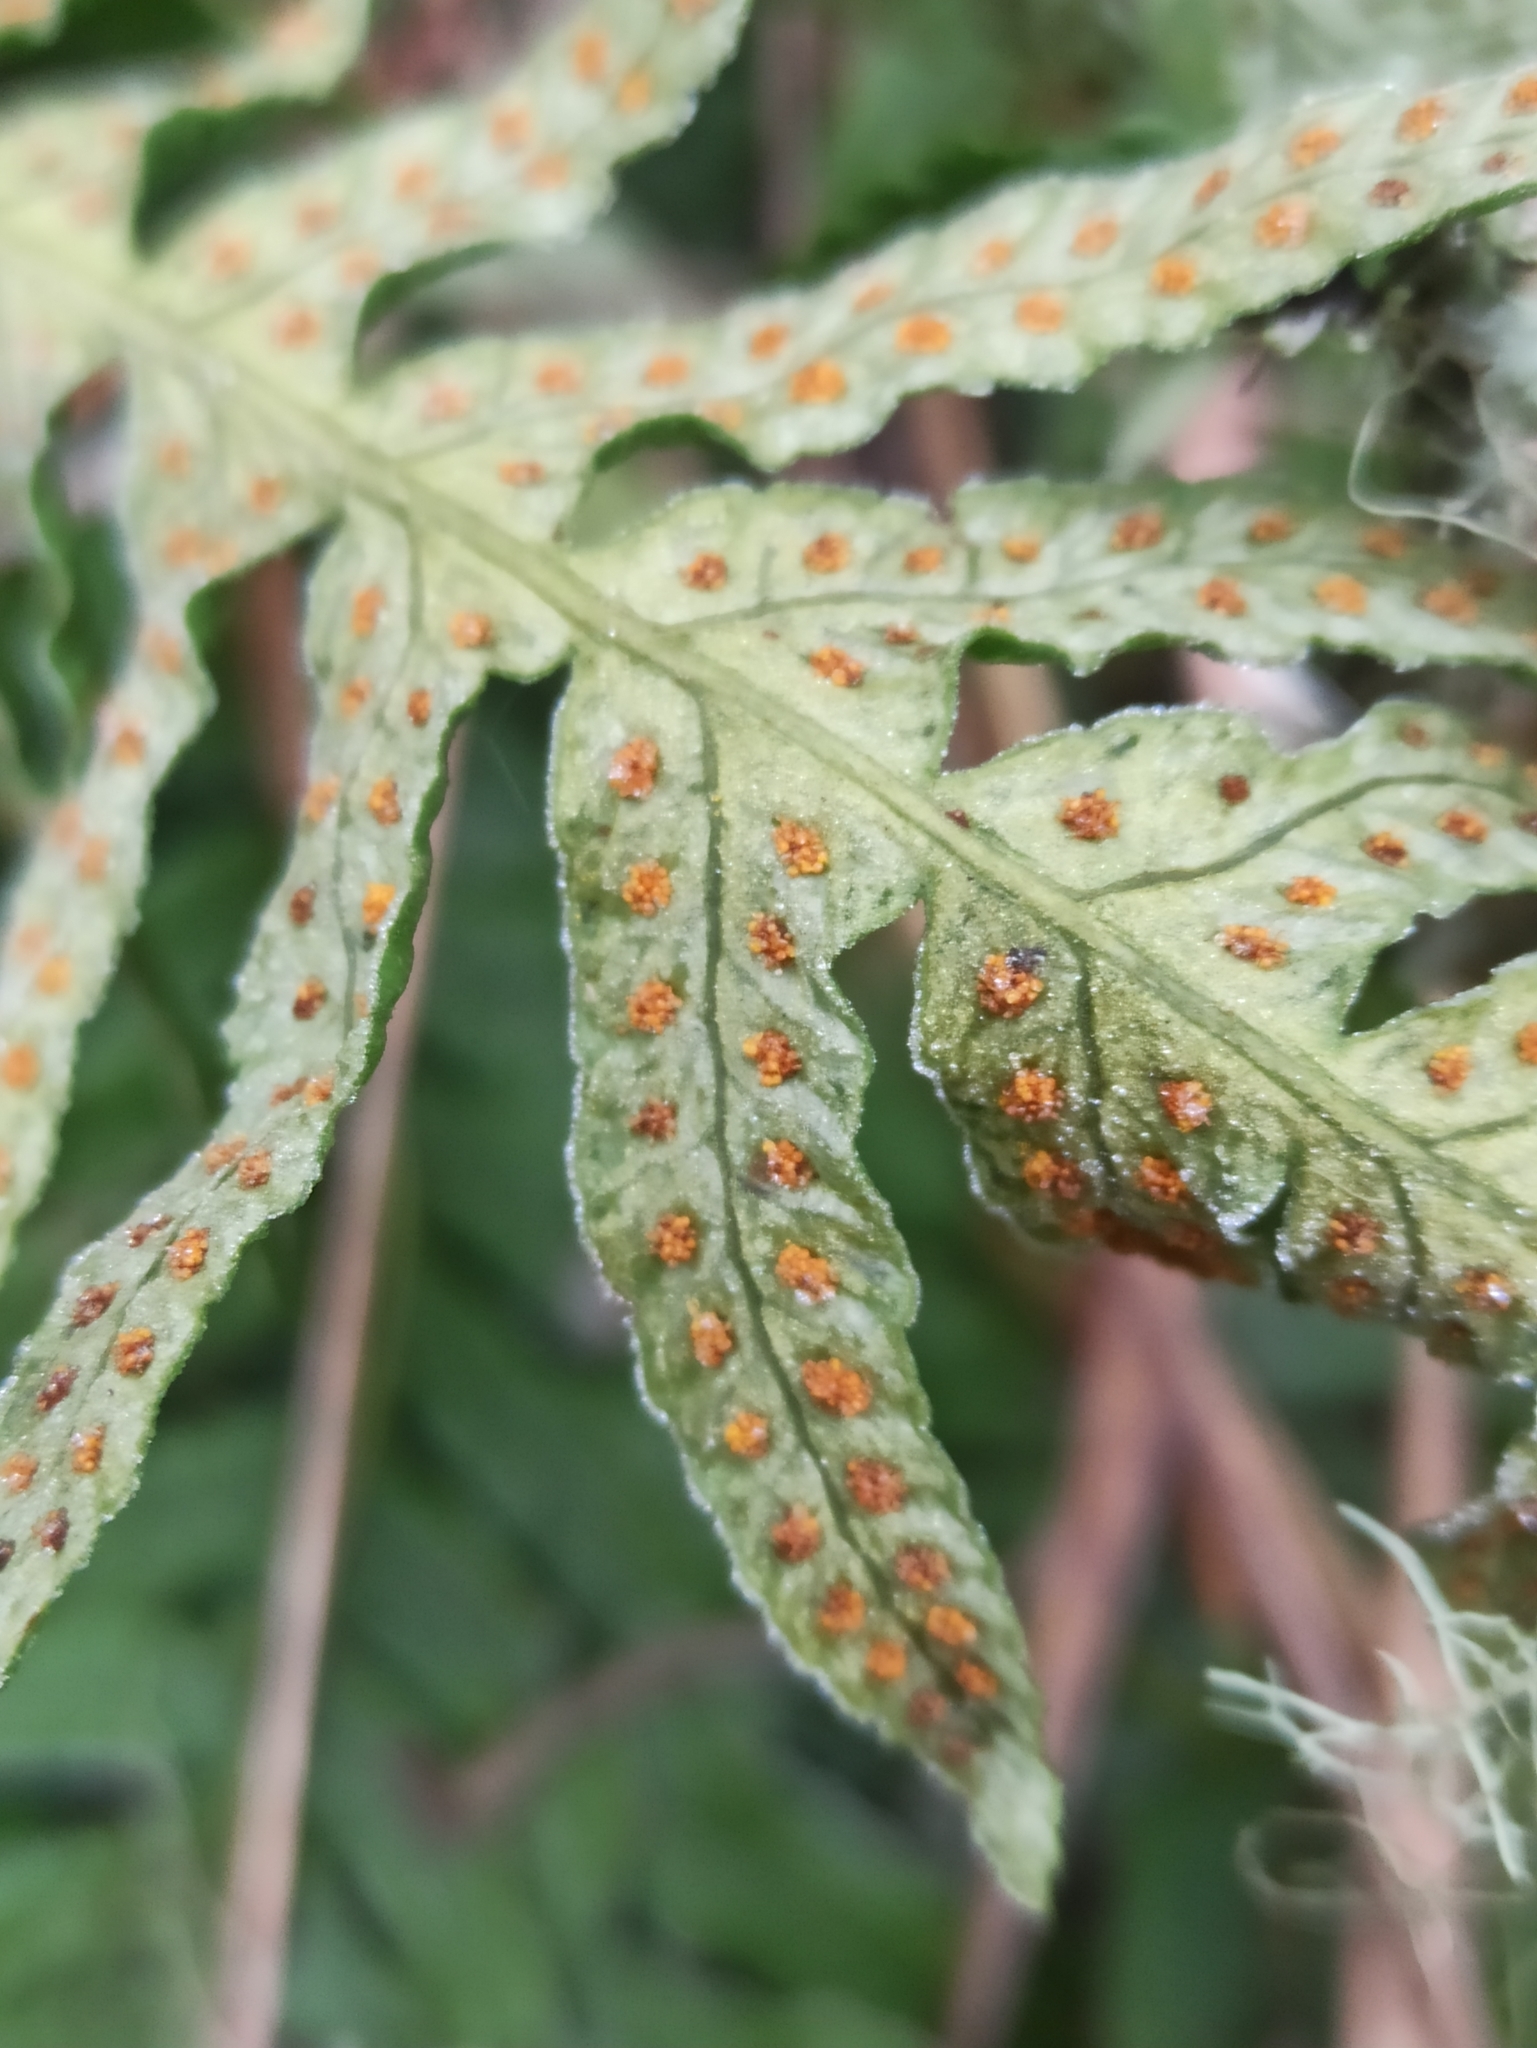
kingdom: Plantae
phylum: Tracheophyta
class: Polypodiopsida
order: Polypodiales
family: Polypodiaceae
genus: Polypodium
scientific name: Polypodium vulgare
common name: Common polypody
